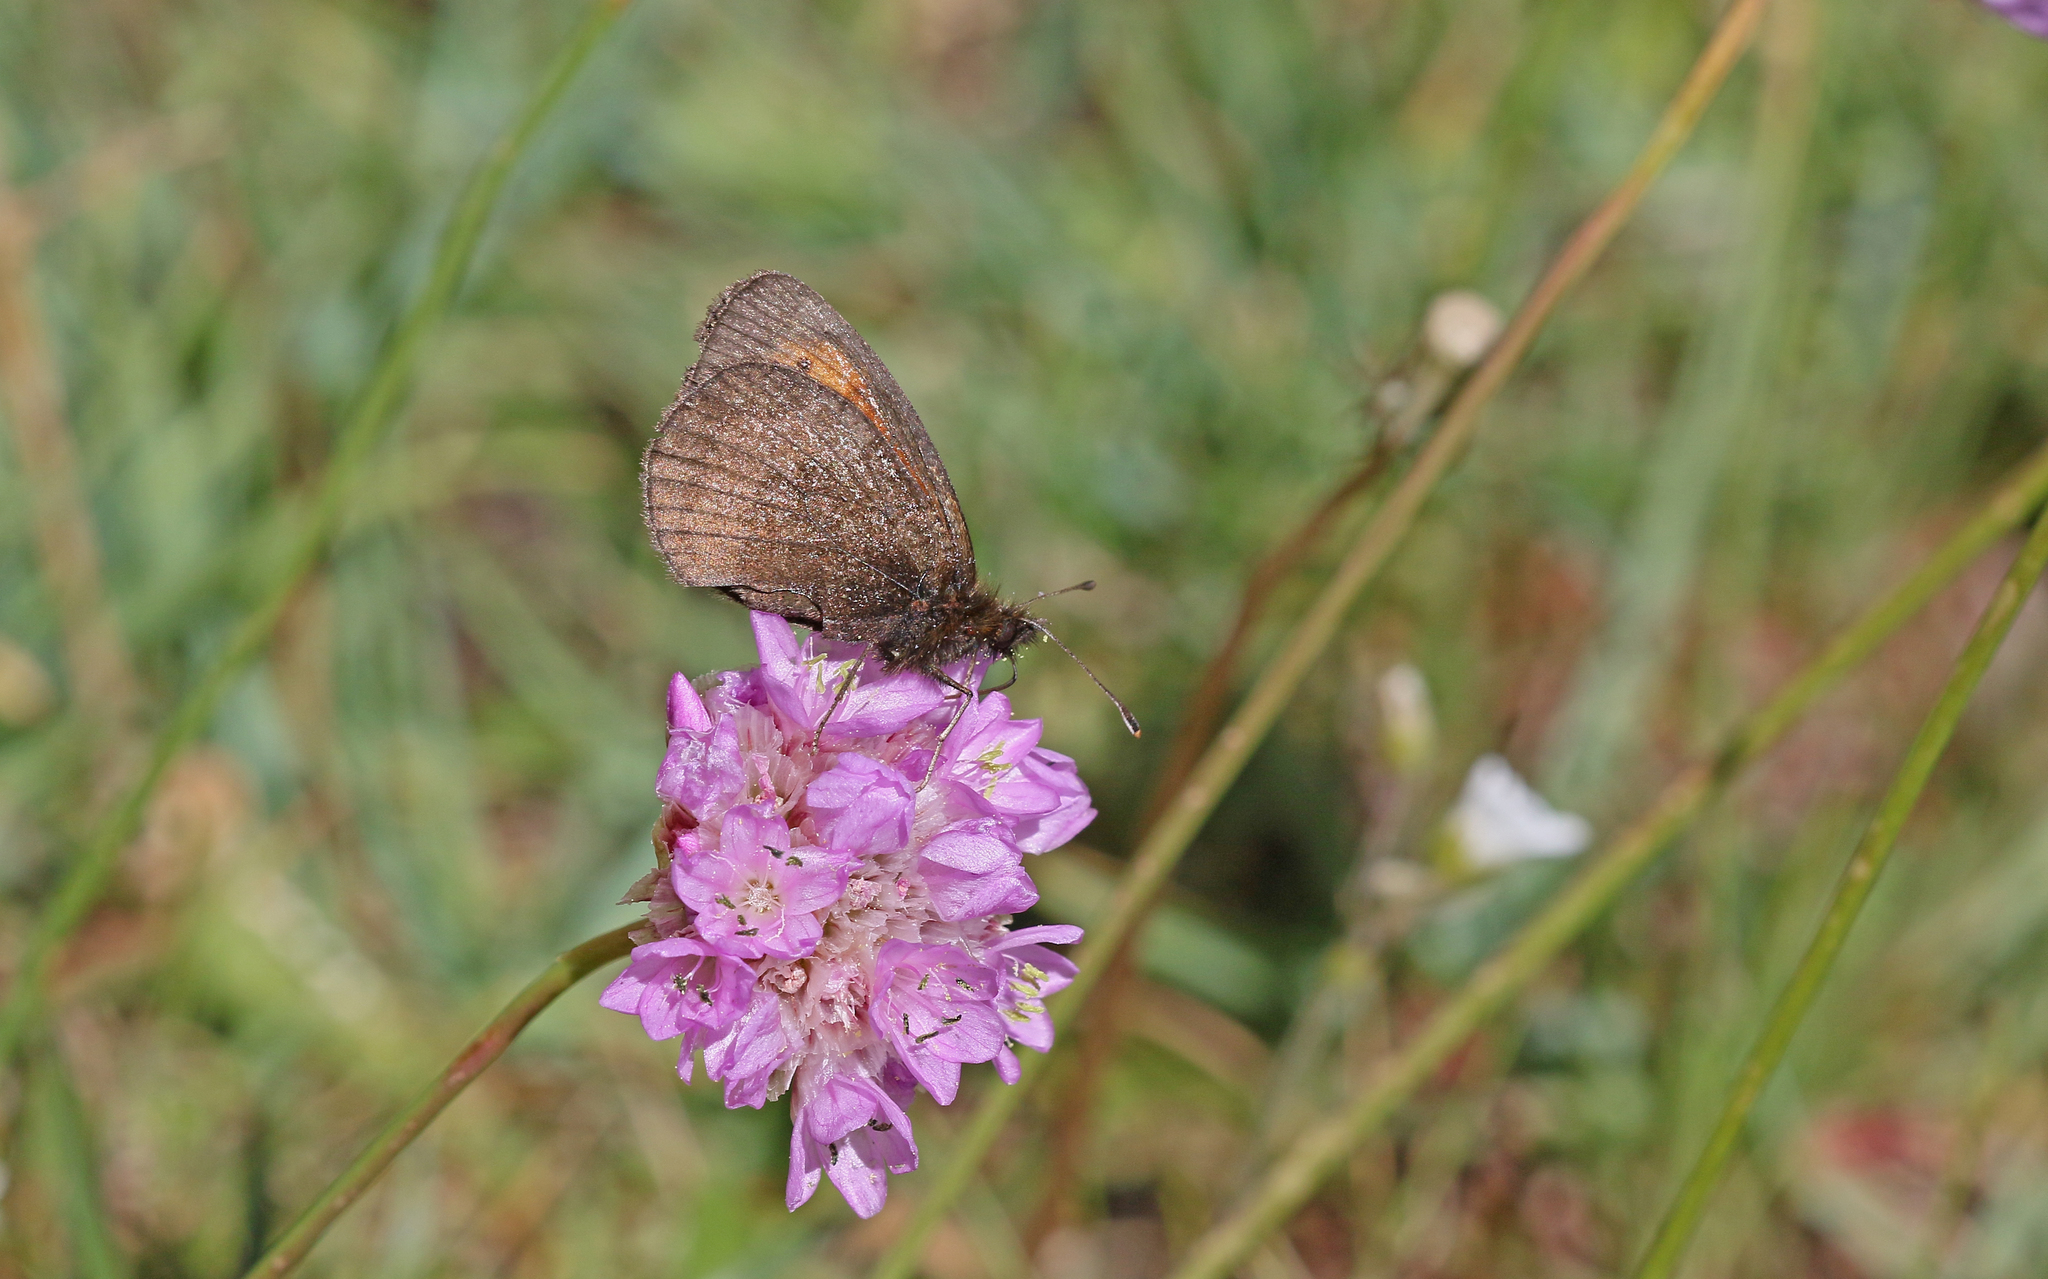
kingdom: Animalia
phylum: Arthropoda
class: Insecta
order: Lepidoptera
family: Nymphalidae
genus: Erebia
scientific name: Erebia mnestra
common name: Mnestra’s ringlet
